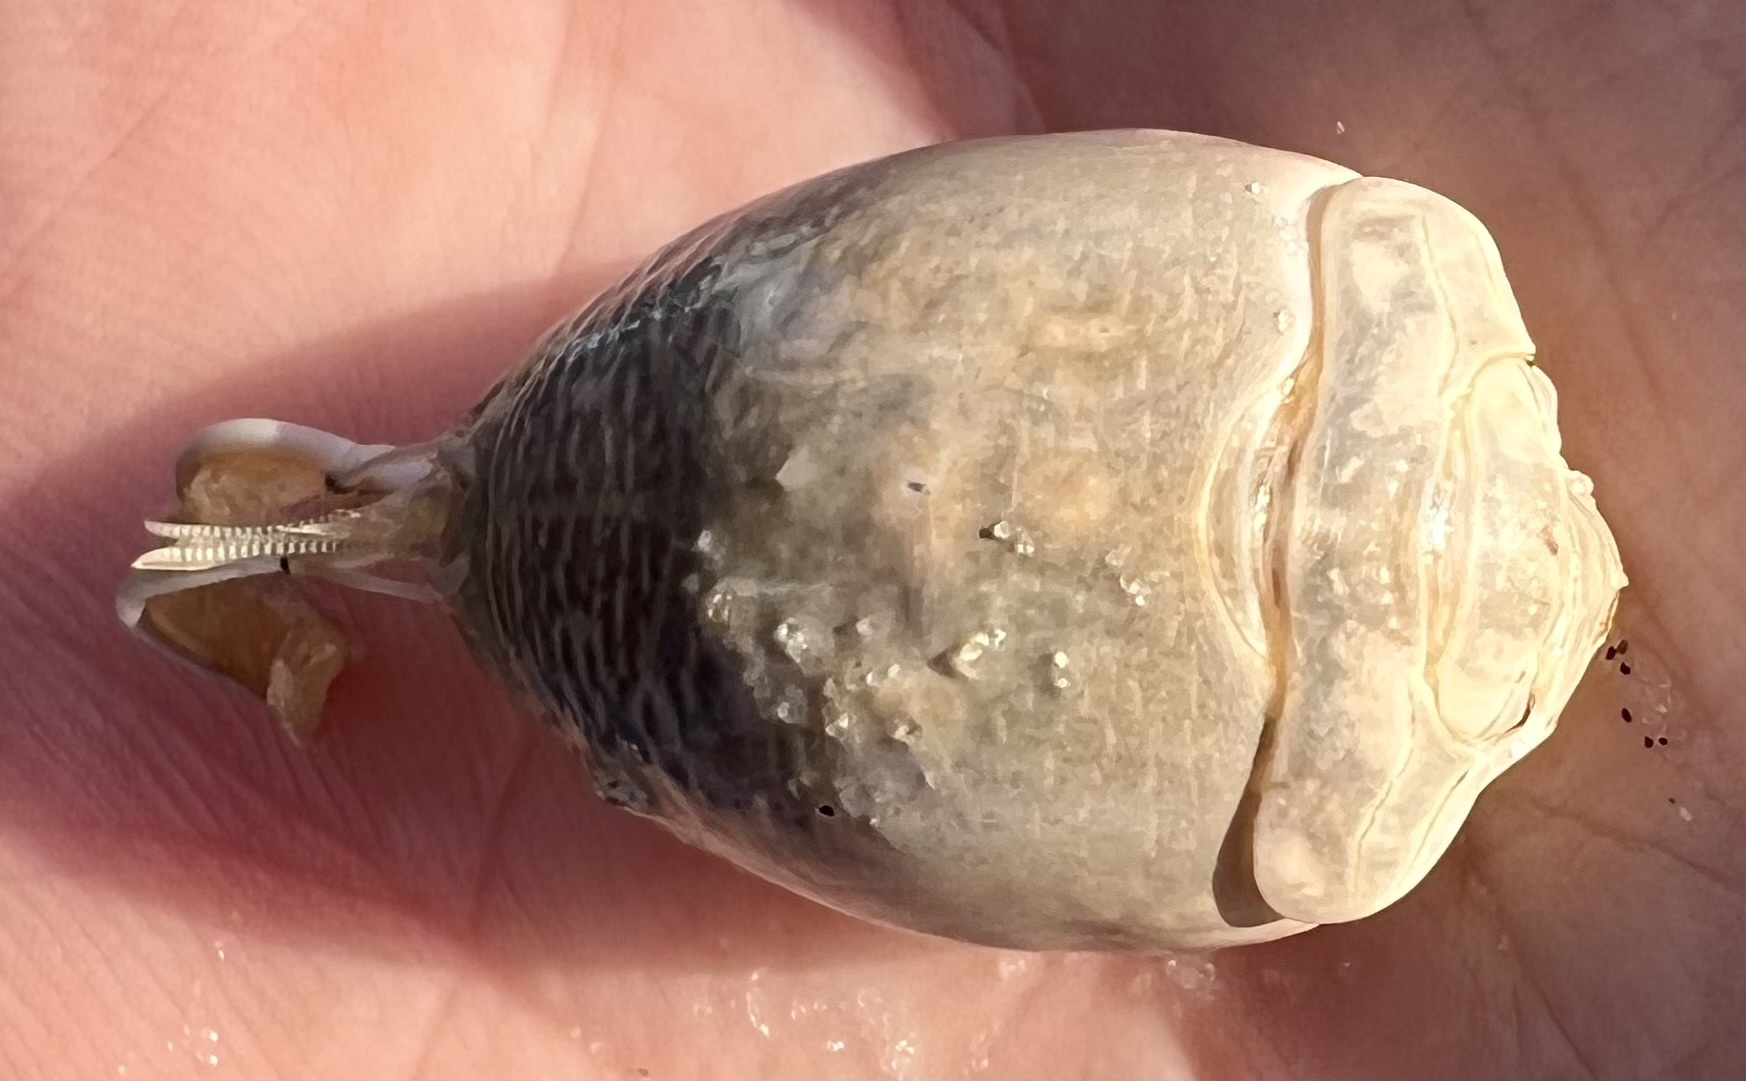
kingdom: Animalia
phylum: Arthropoda
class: Malacostraca
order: Decapoda
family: Hippidae
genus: Emerita
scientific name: Emerita talpoida
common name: Atlantic sand crab
